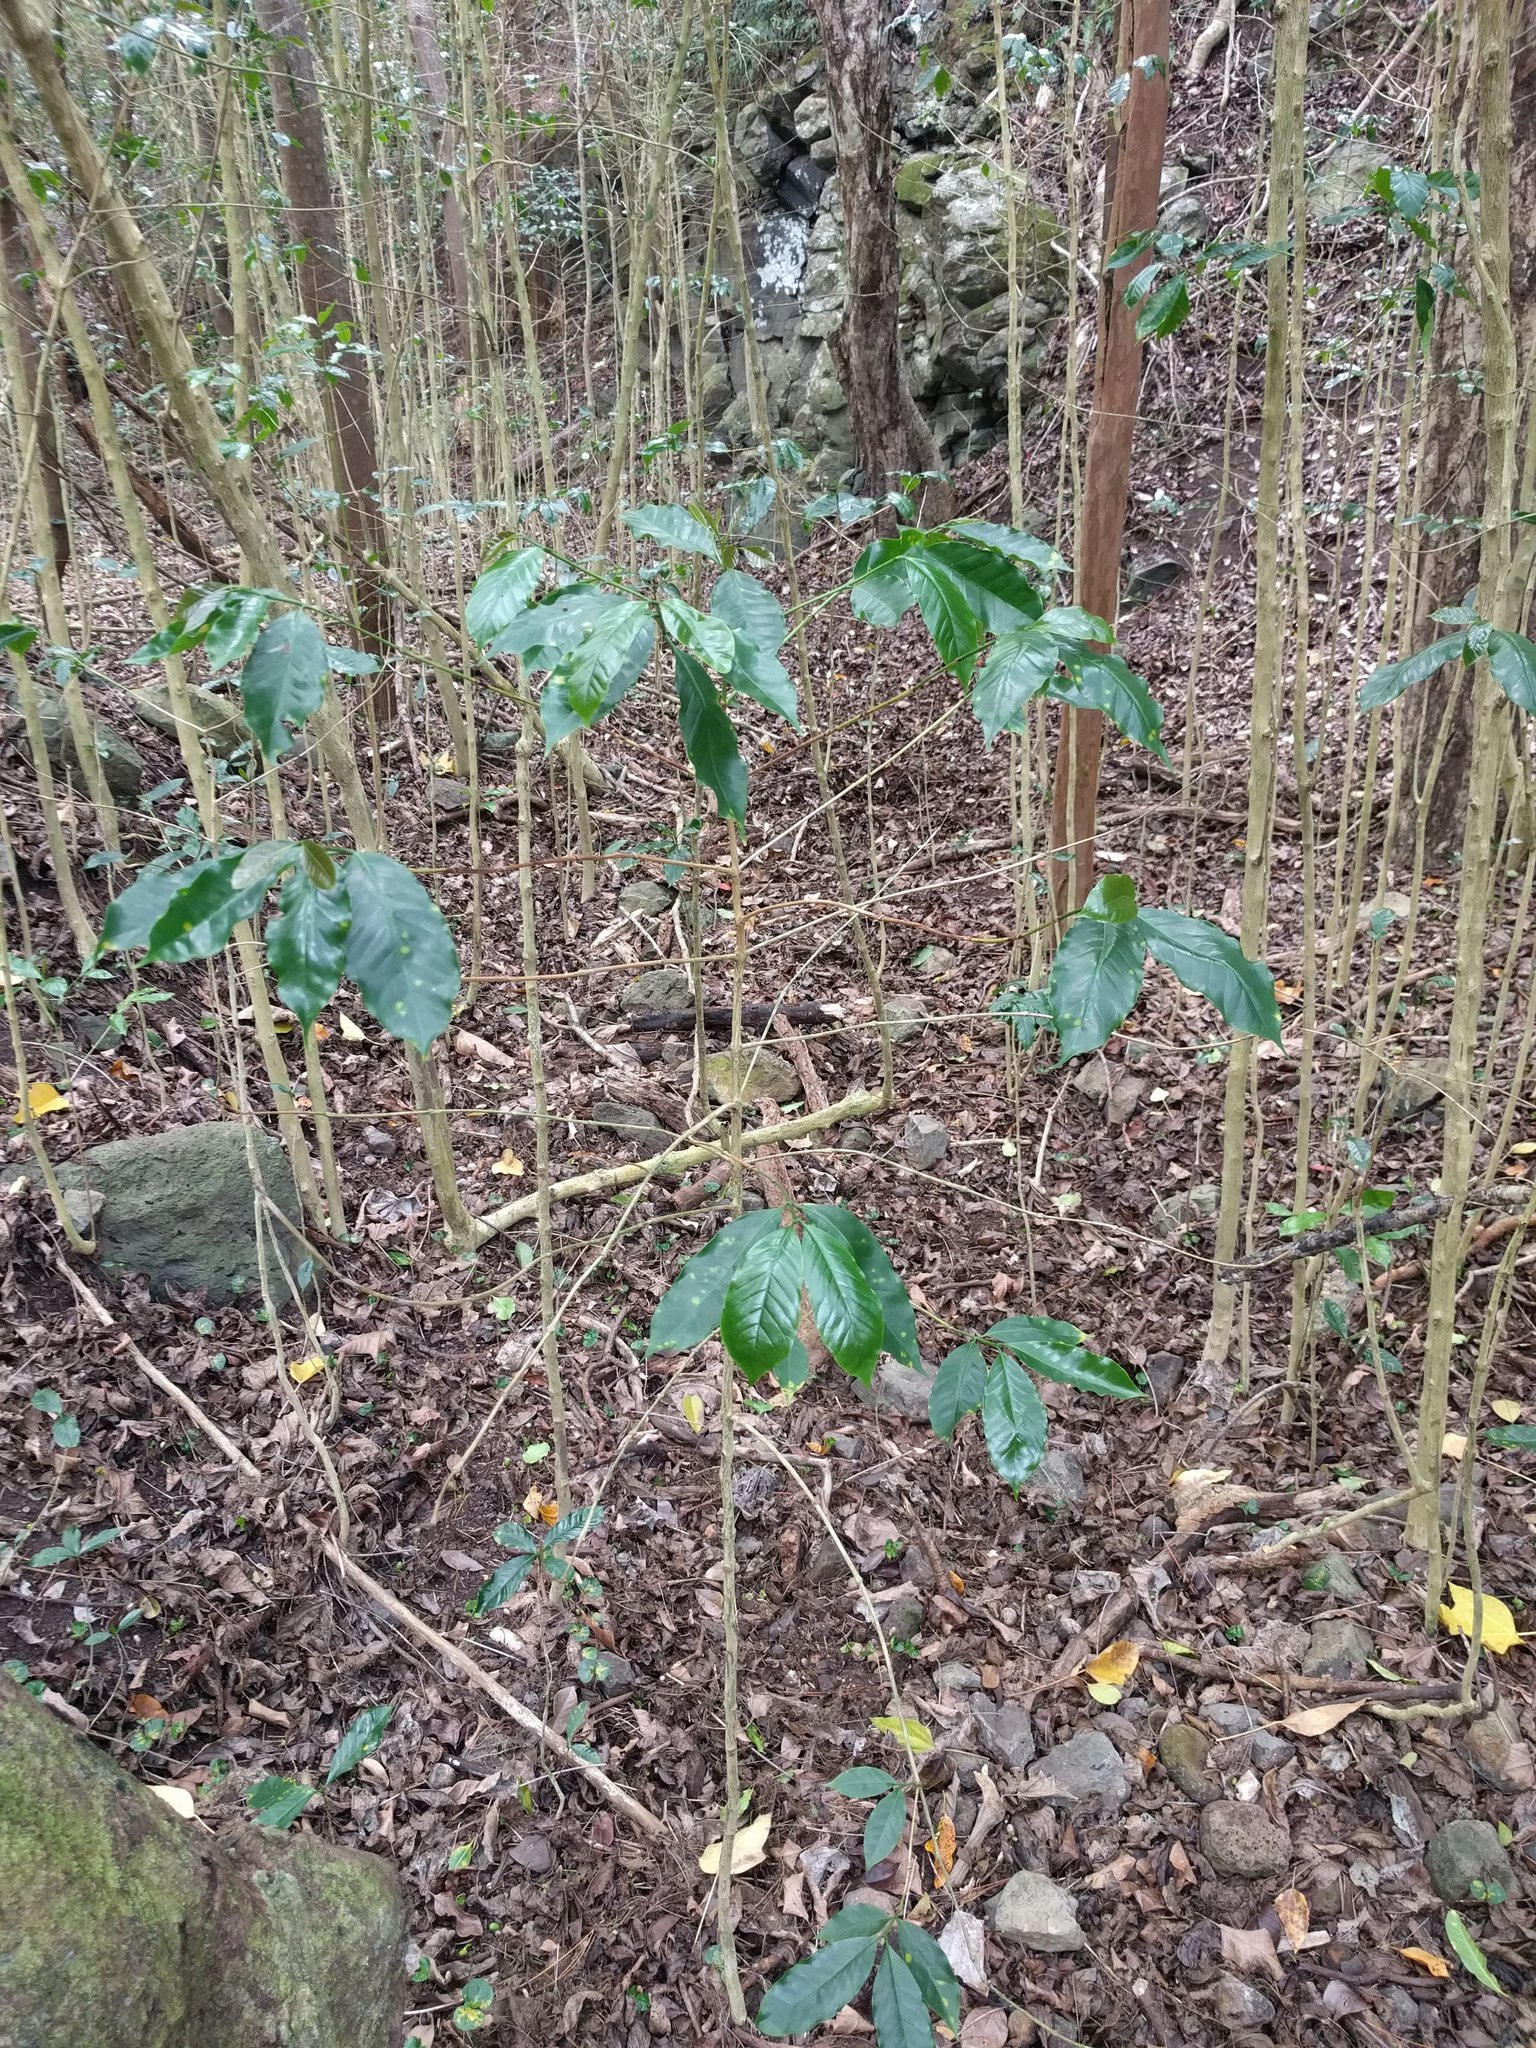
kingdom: Plantae
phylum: Tracheophyta
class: Magnoliopsida
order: Gentianales
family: Rubiaceae
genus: Coffea
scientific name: Coffea arabica
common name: Coffee
